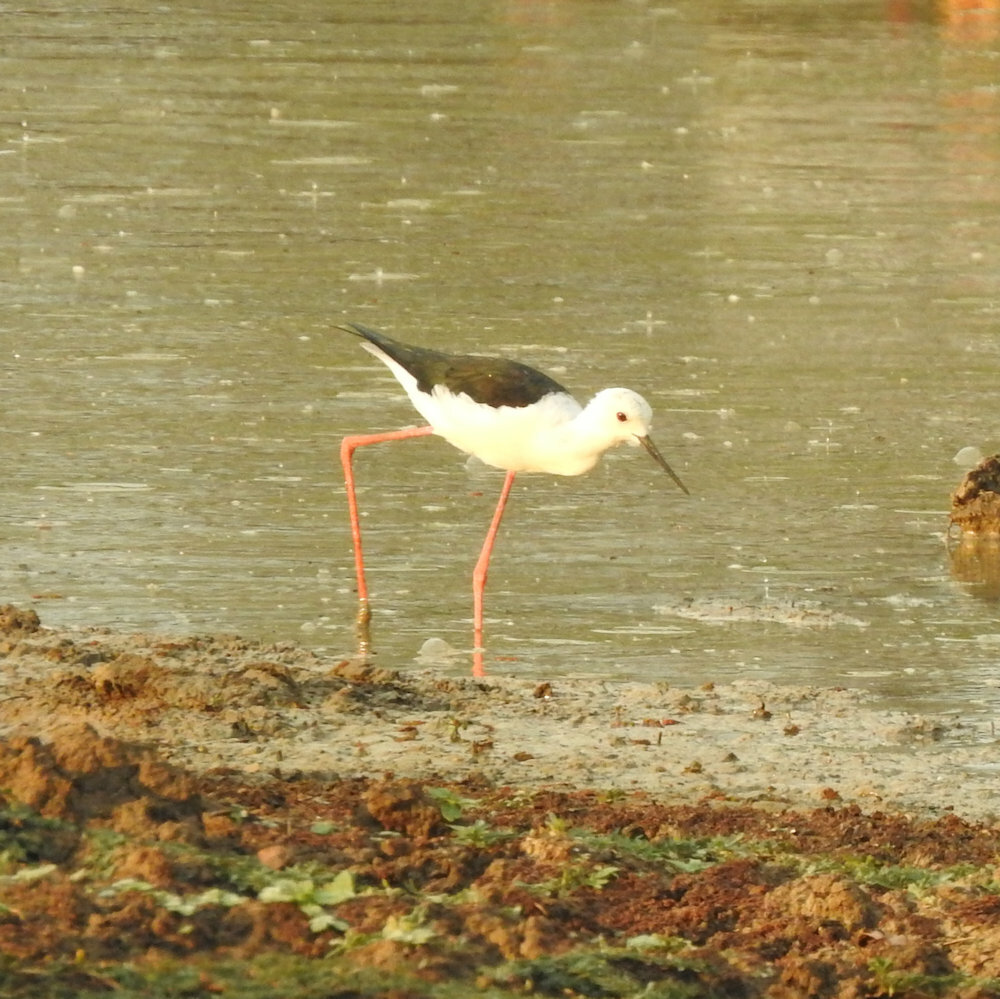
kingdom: Animalia
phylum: Chordata
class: Aves
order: Charadriiformes
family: Recurvirostridae
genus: Himantopus
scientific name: Himantopus himantopus
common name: Black-winged stilt
